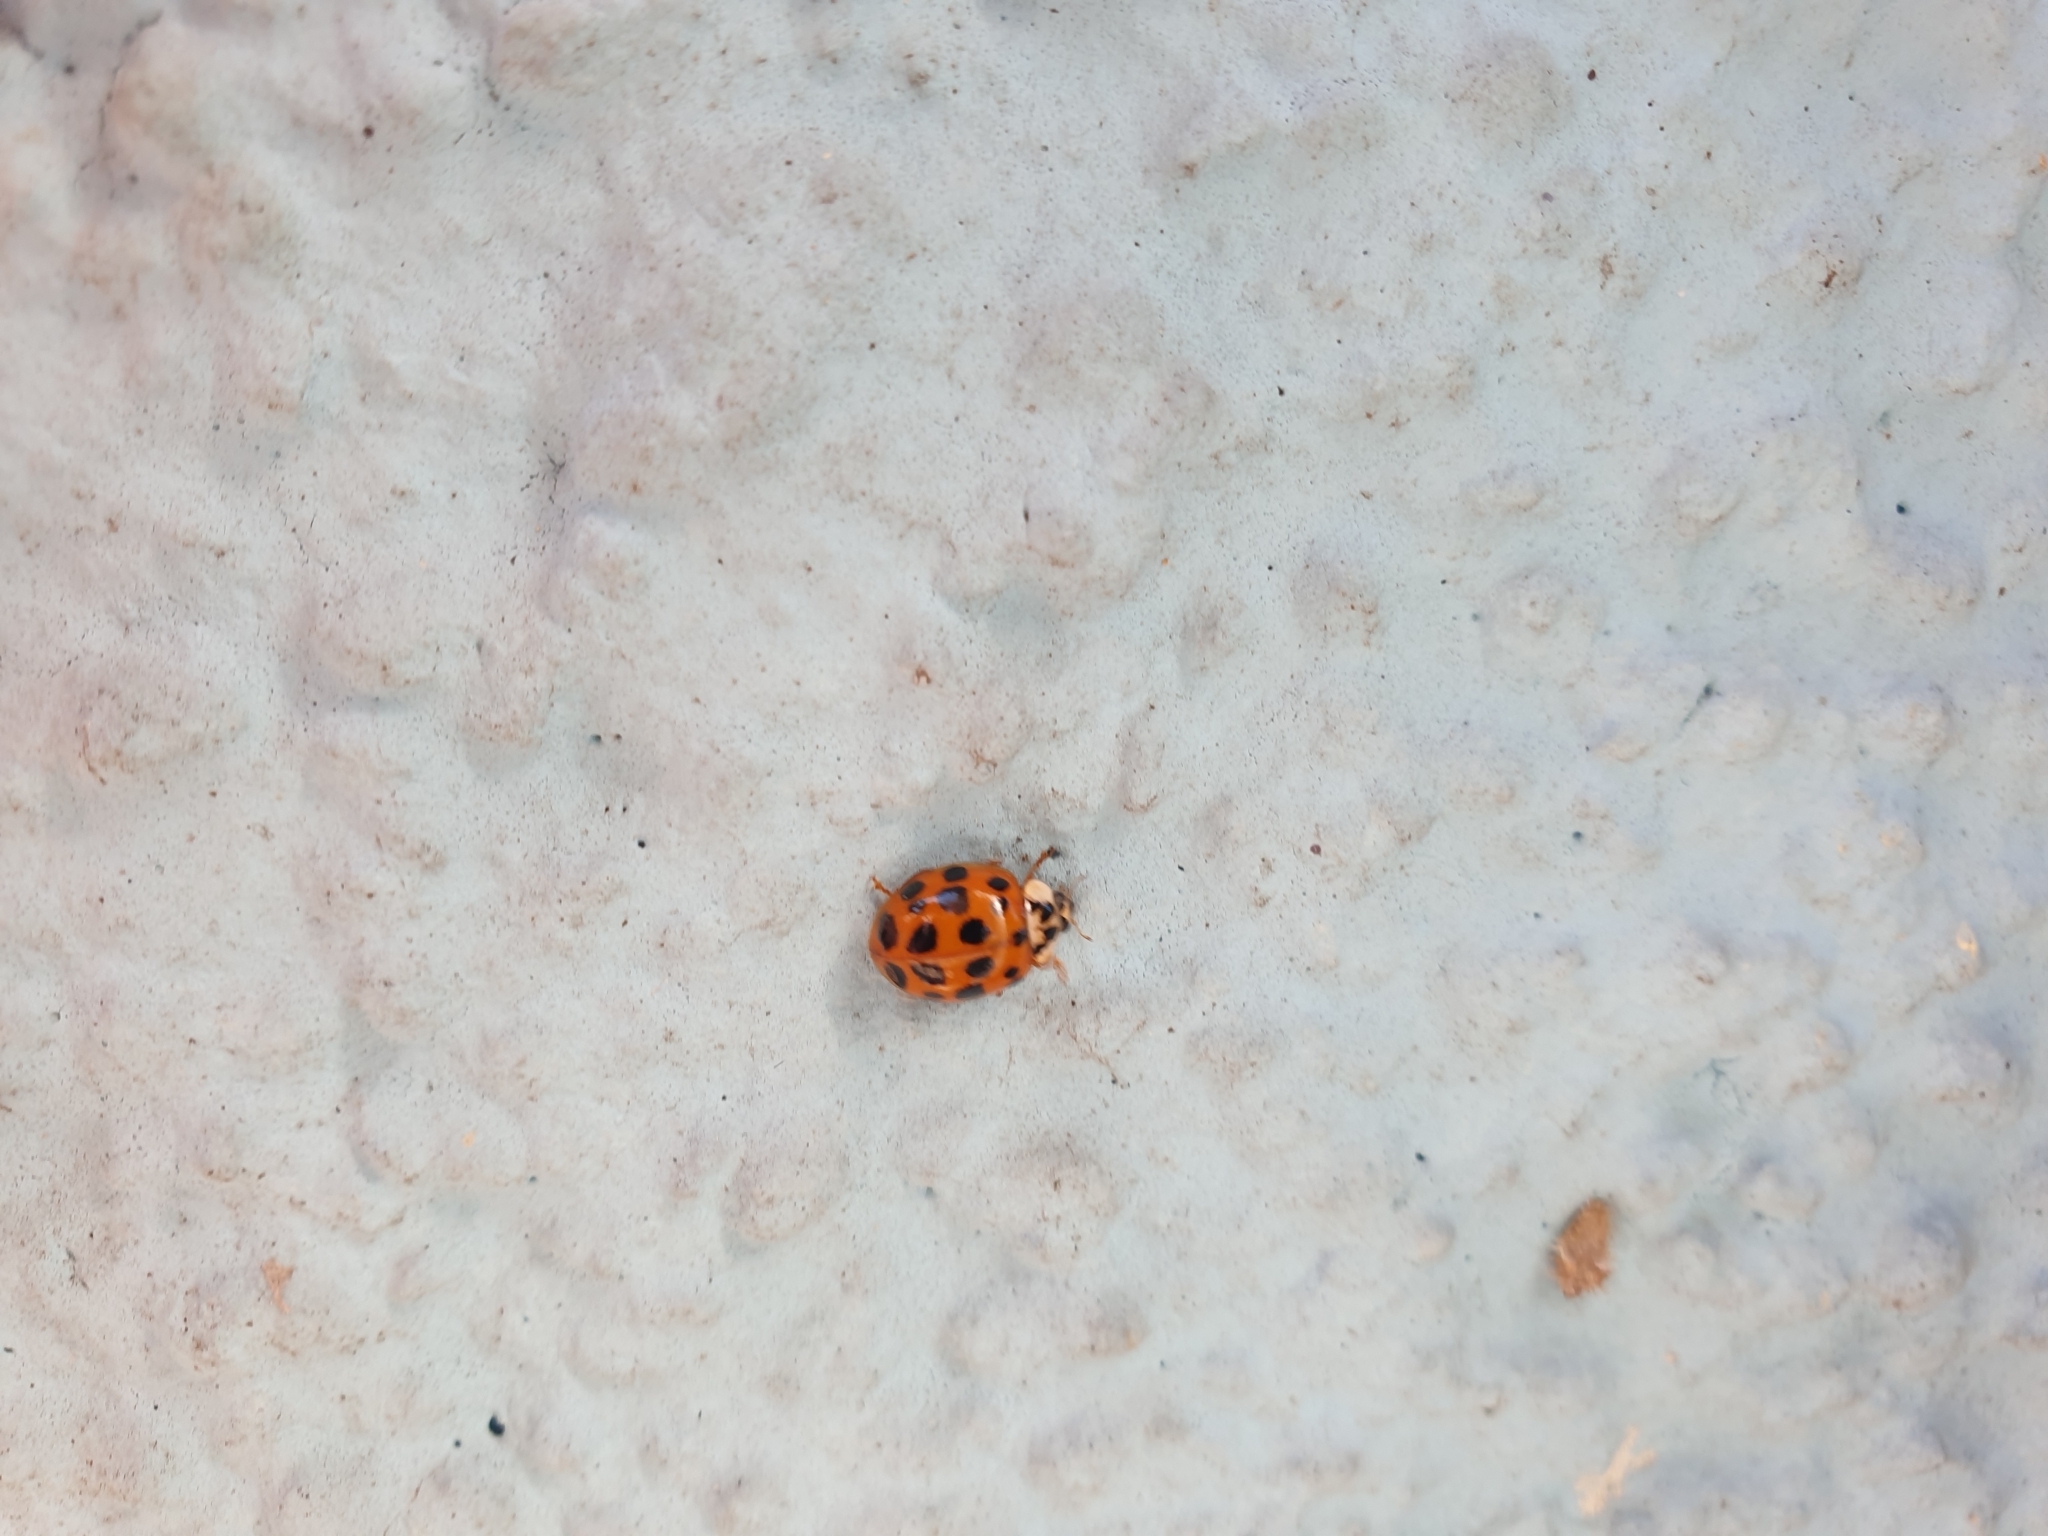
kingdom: Animalia
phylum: Arthropoda
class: Insecta
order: Coleoptera
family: Coccinellidae
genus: Harmonia
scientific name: Harmonia axyridis
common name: Harlequin ladybird
